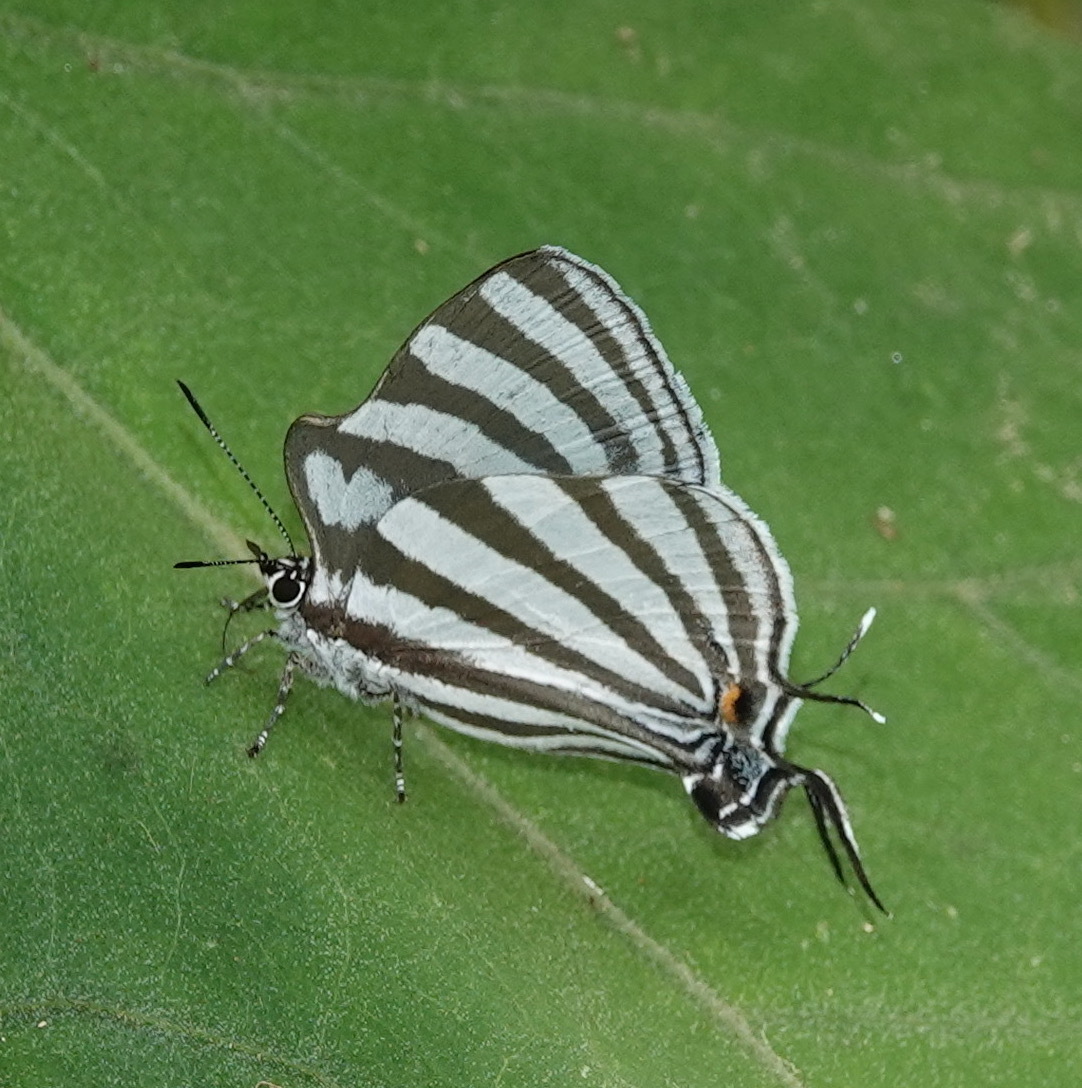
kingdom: Animalia
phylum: Arthropoda
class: Insecta
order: Lepidoptera
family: Lycaenidae
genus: Laothus
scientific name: Laothus gibberosa
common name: Great stripestreak
